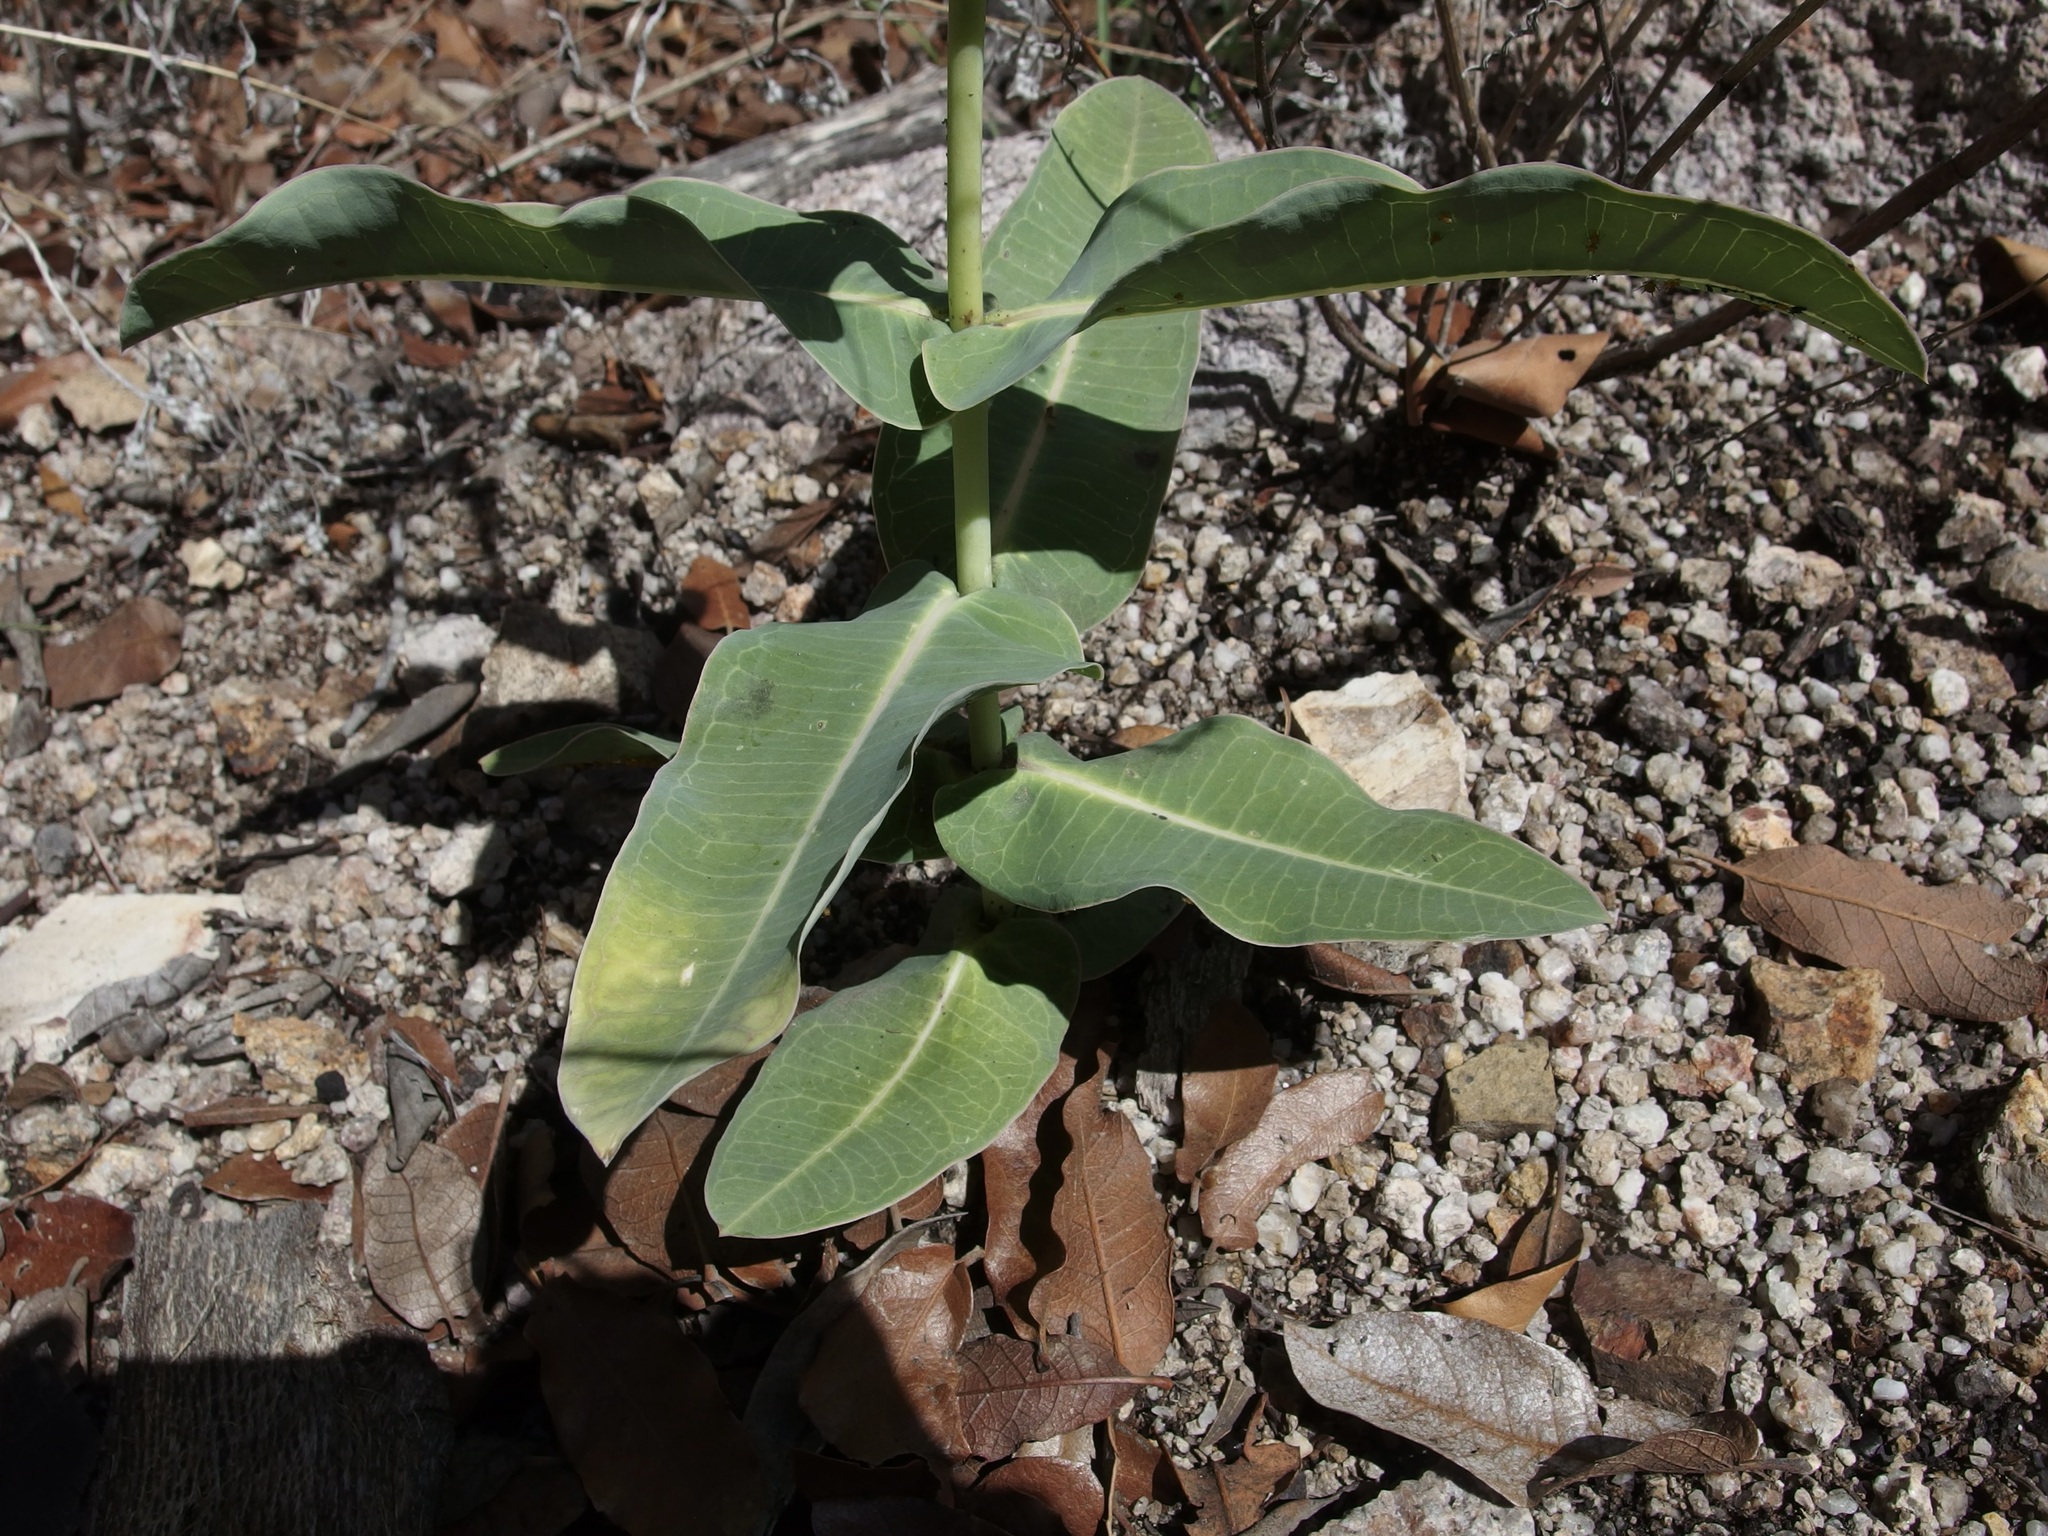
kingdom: Plantae
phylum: Tracheophyta
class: Magnoliopsida
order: Gentianales
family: Apocynaceae
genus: Asclepias
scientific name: Asclepias elata
